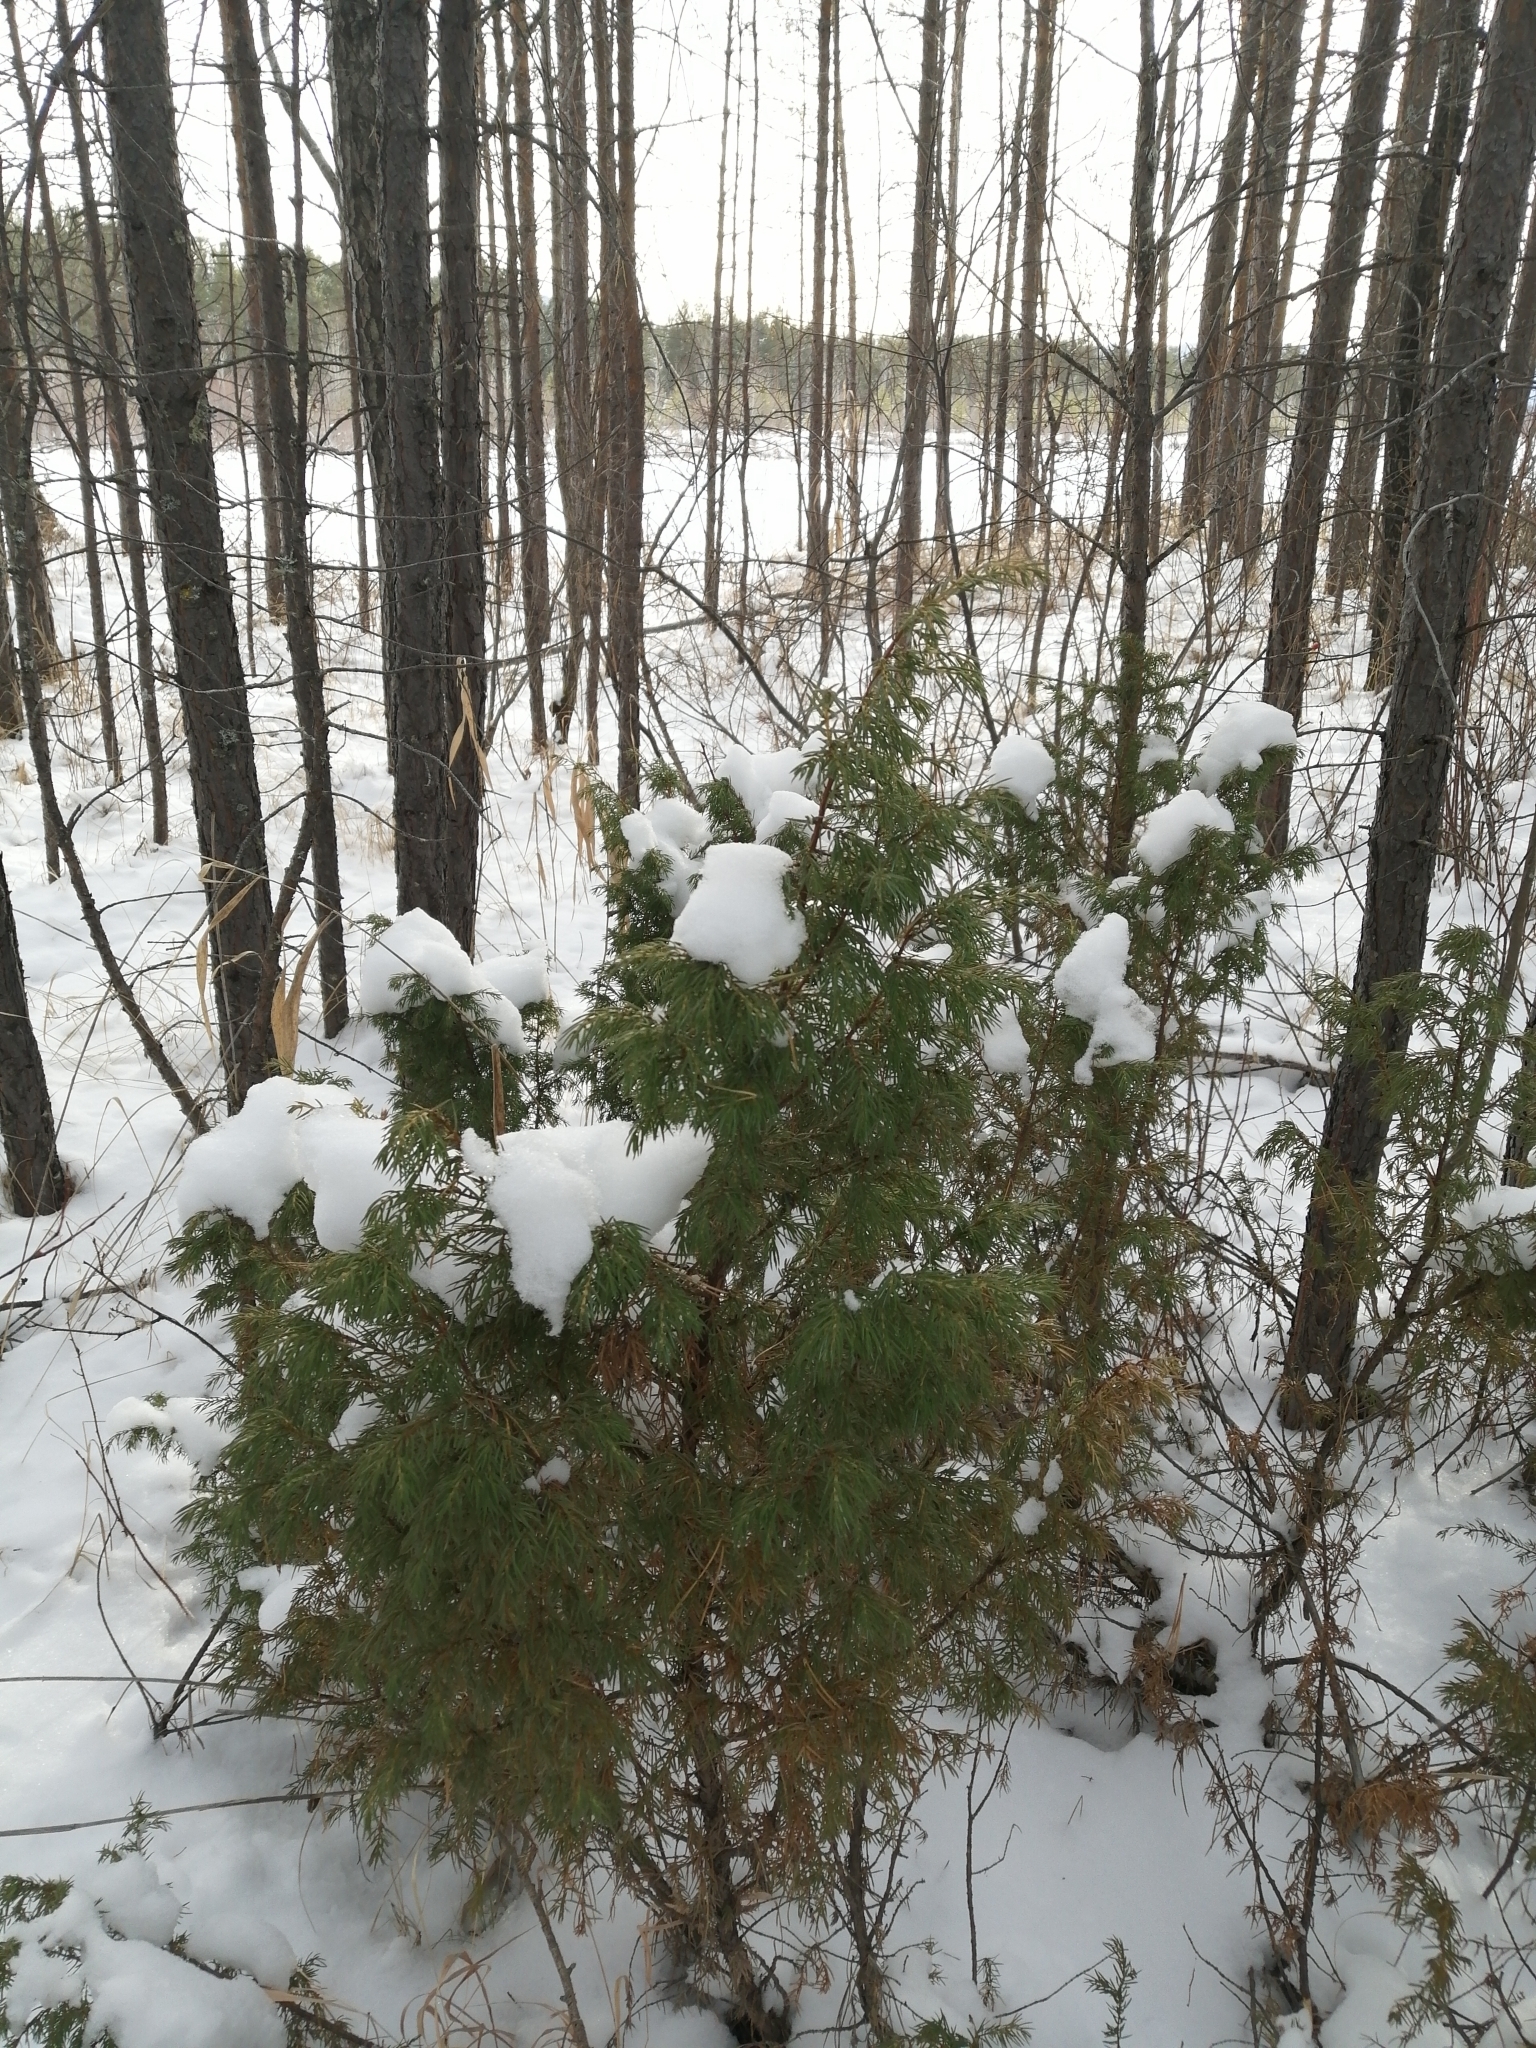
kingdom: Plantae
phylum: Tracheophyta
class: Pinopsida
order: Pinales
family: Cupressaceae
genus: Juniperus
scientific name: Juniperus communis
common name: Common juniper
